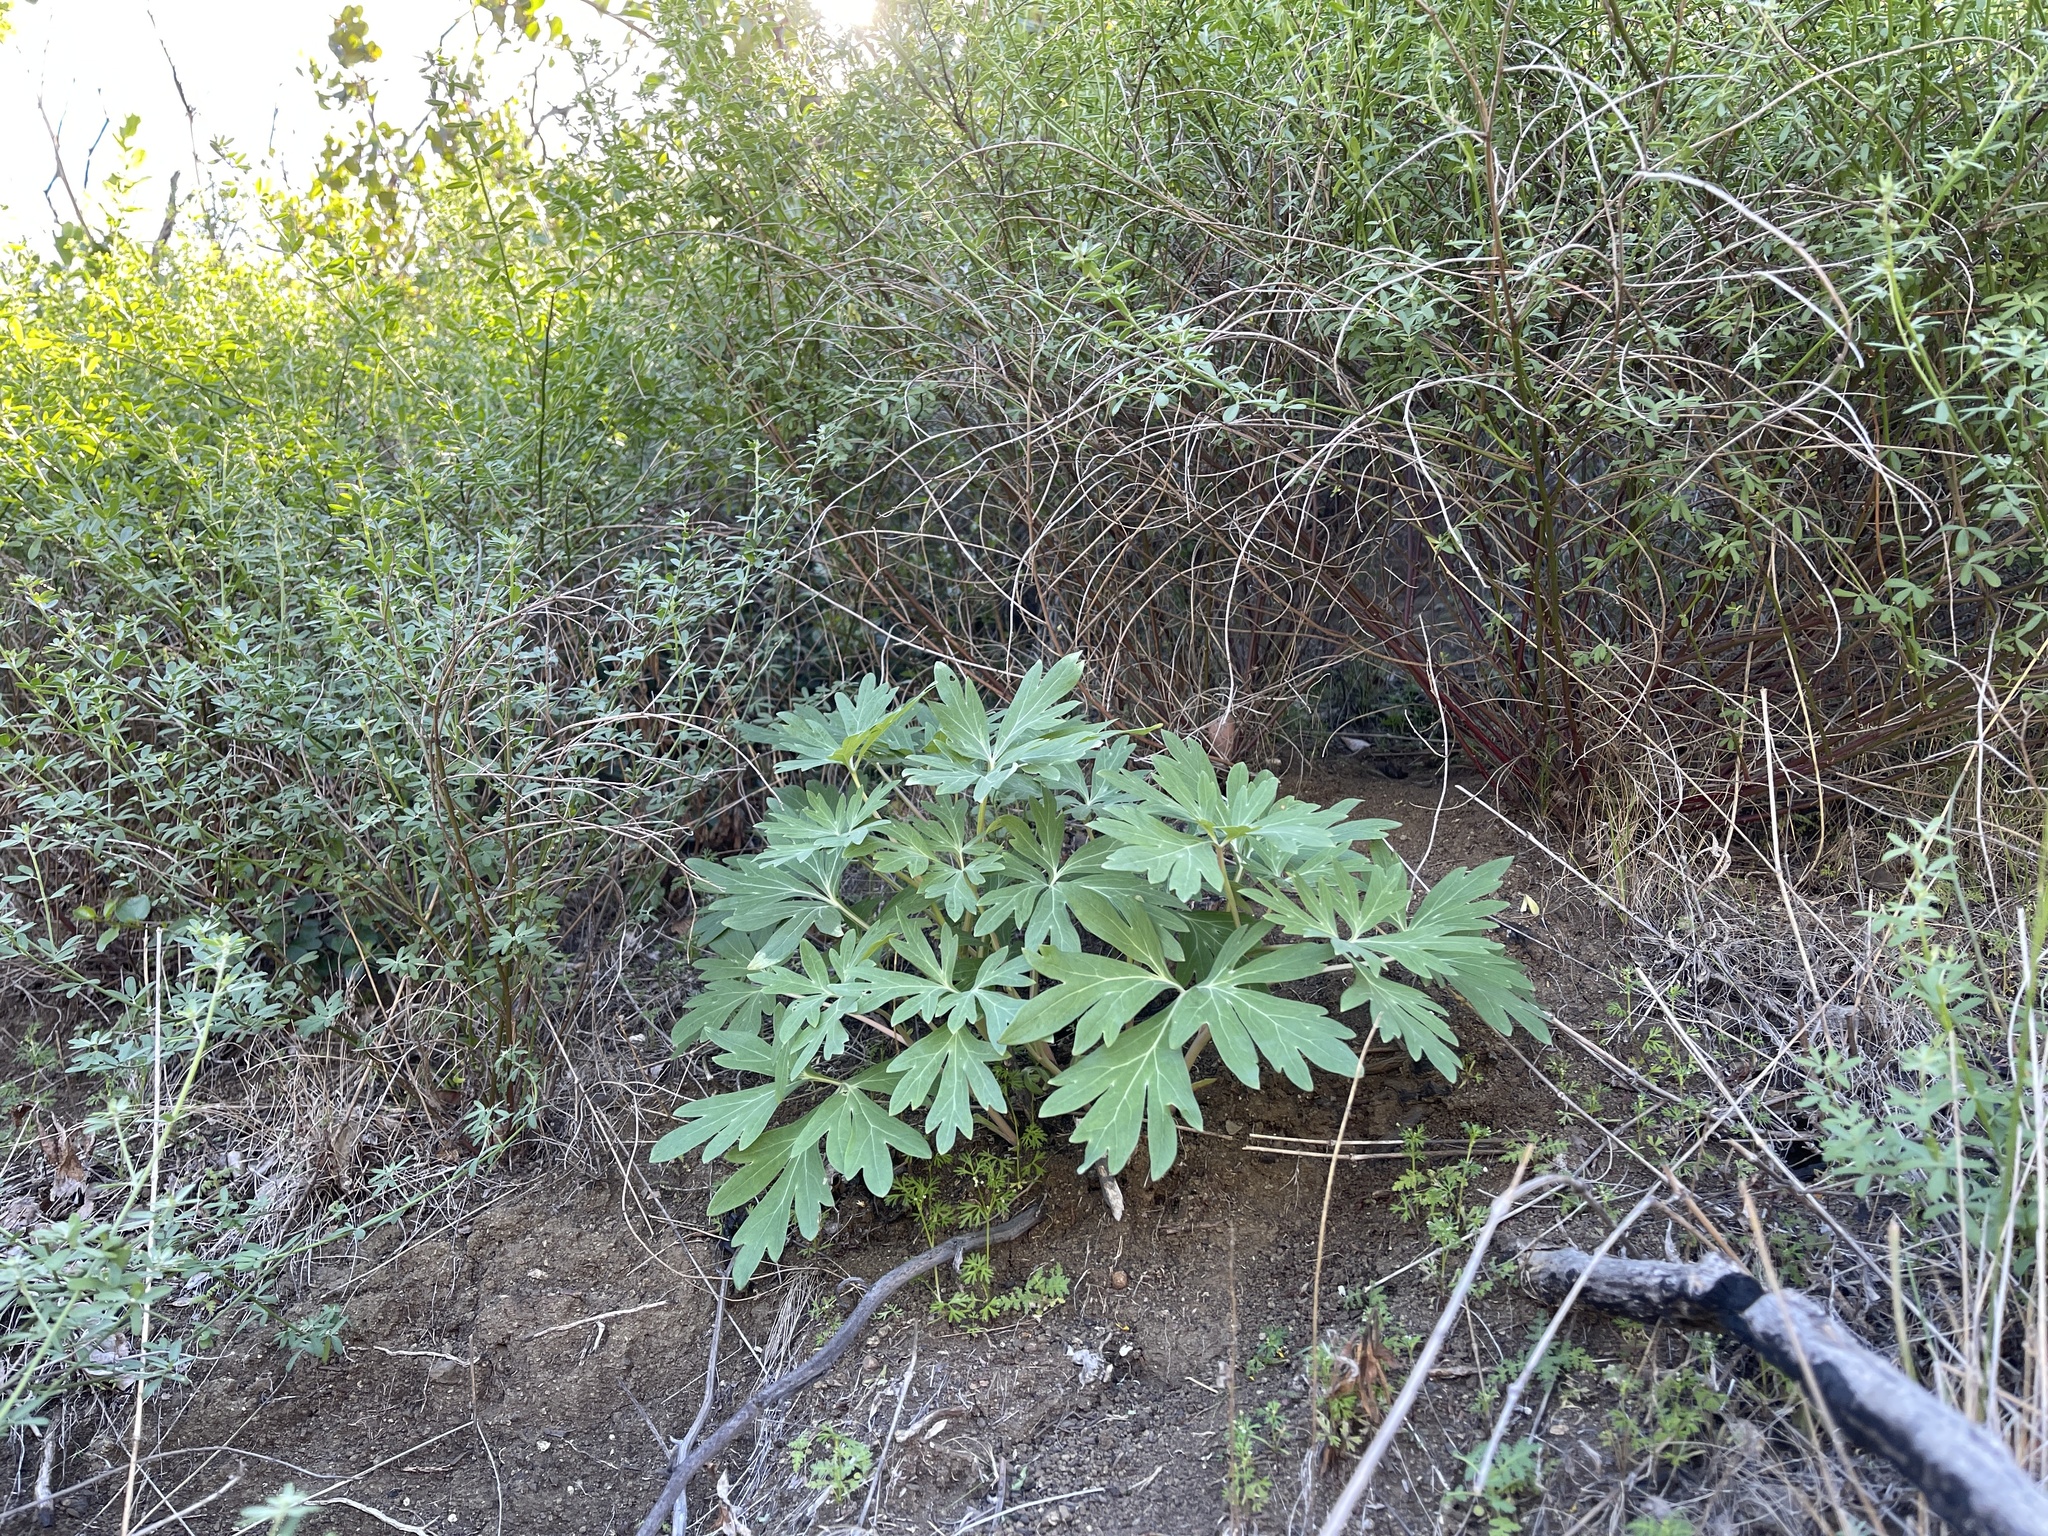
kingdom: Plantae
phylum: Tracheophyta
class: Magnoliopsida
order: Saxifragales
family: Paeoniaceae
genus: Paeonia
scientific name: Paeonia californica
